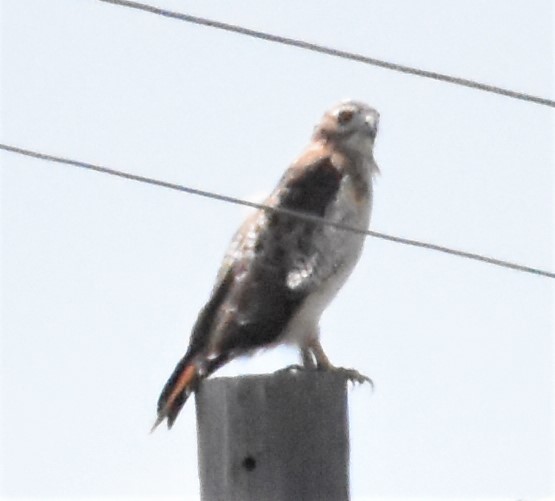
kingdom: Animalia
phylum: Chordata
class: Aves
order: Accipitriformes
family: Accipitridae
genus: Buteo
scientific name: Buteo jamaicensis
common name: Red-tailed hawk
